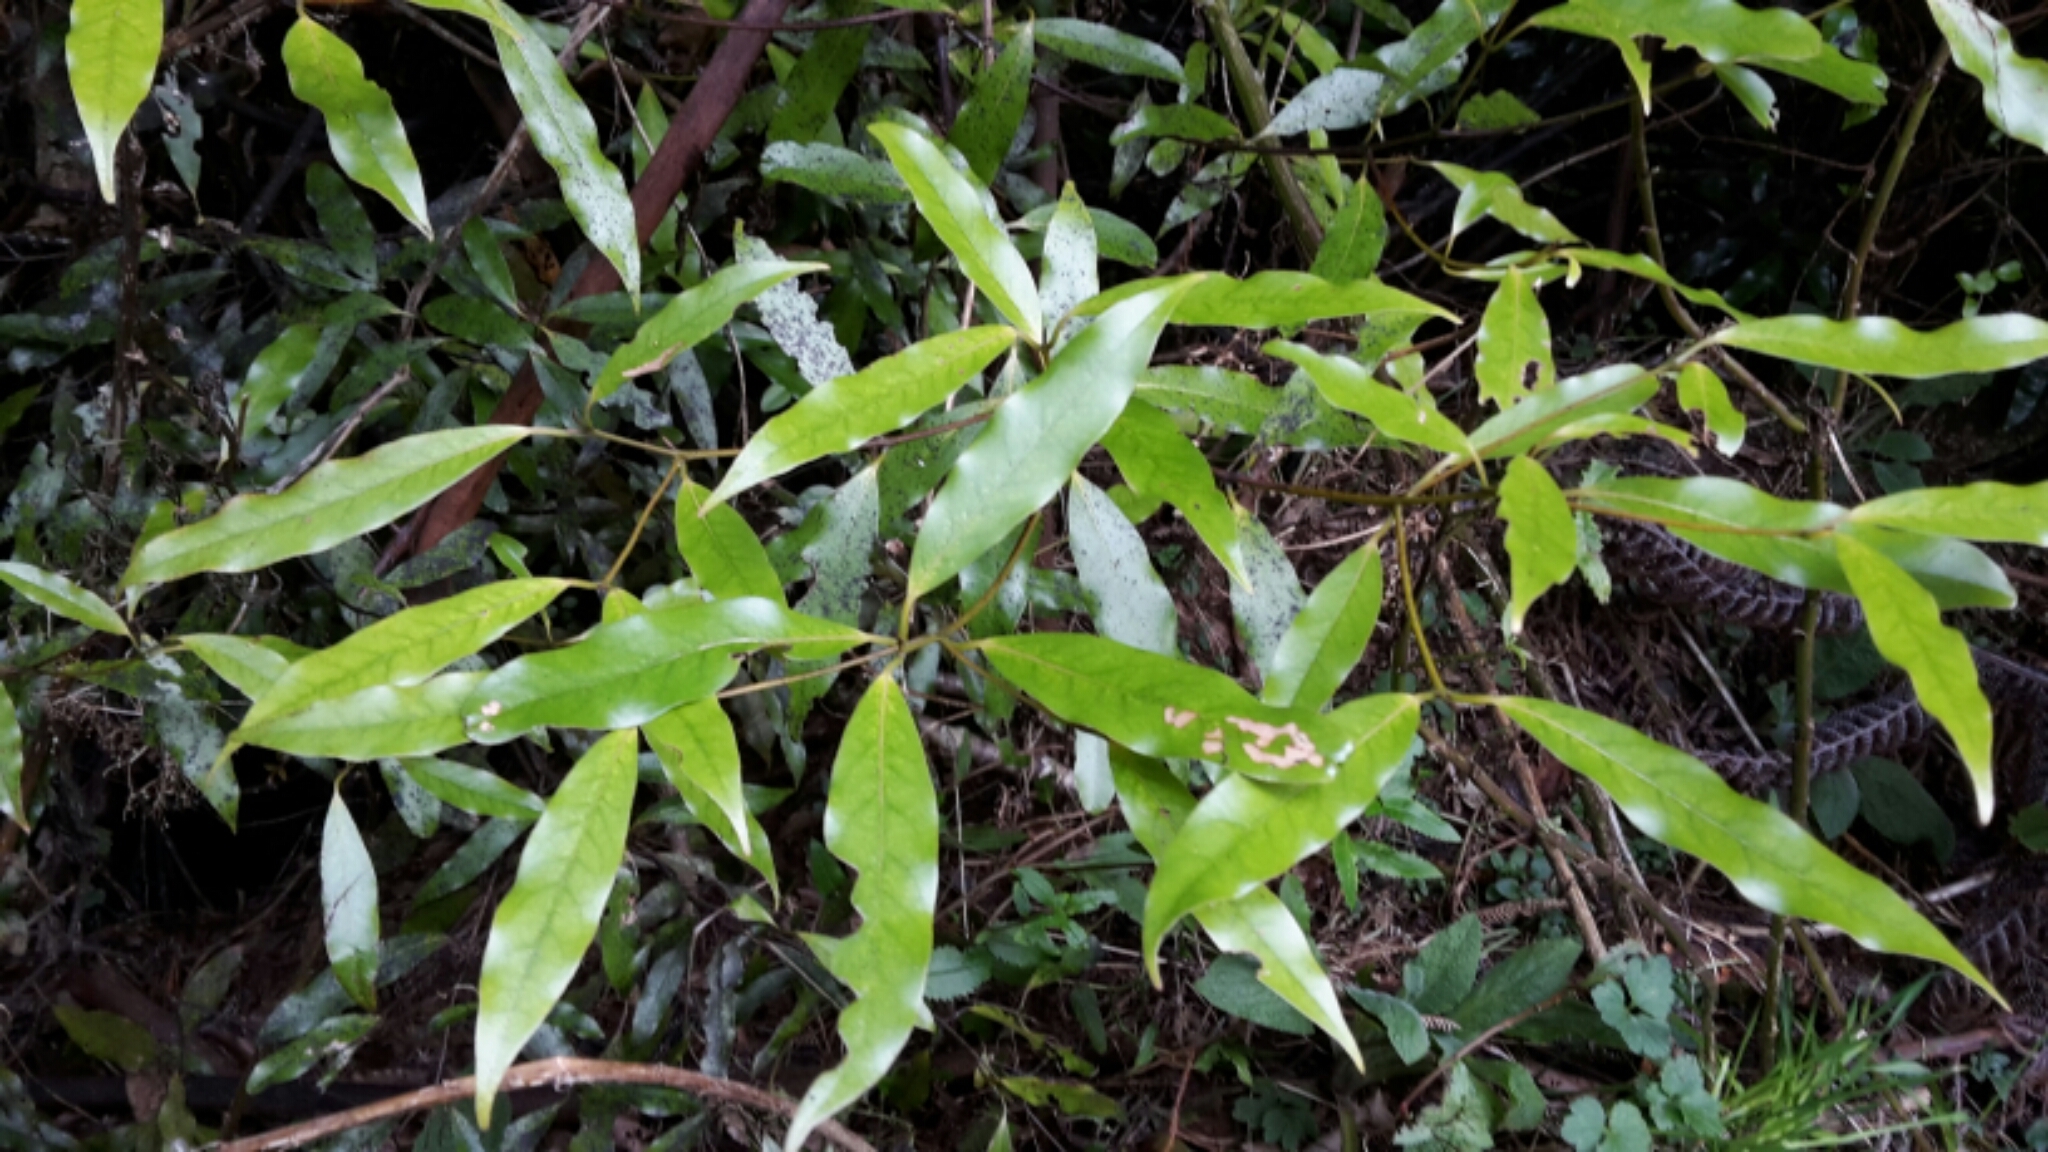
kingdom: Plantae
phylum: Tracheophyta
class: Magnoliopsida
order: Laurales
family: Lauraceae
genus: Beilschmiedia
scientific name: Beilschmiedia tawa
